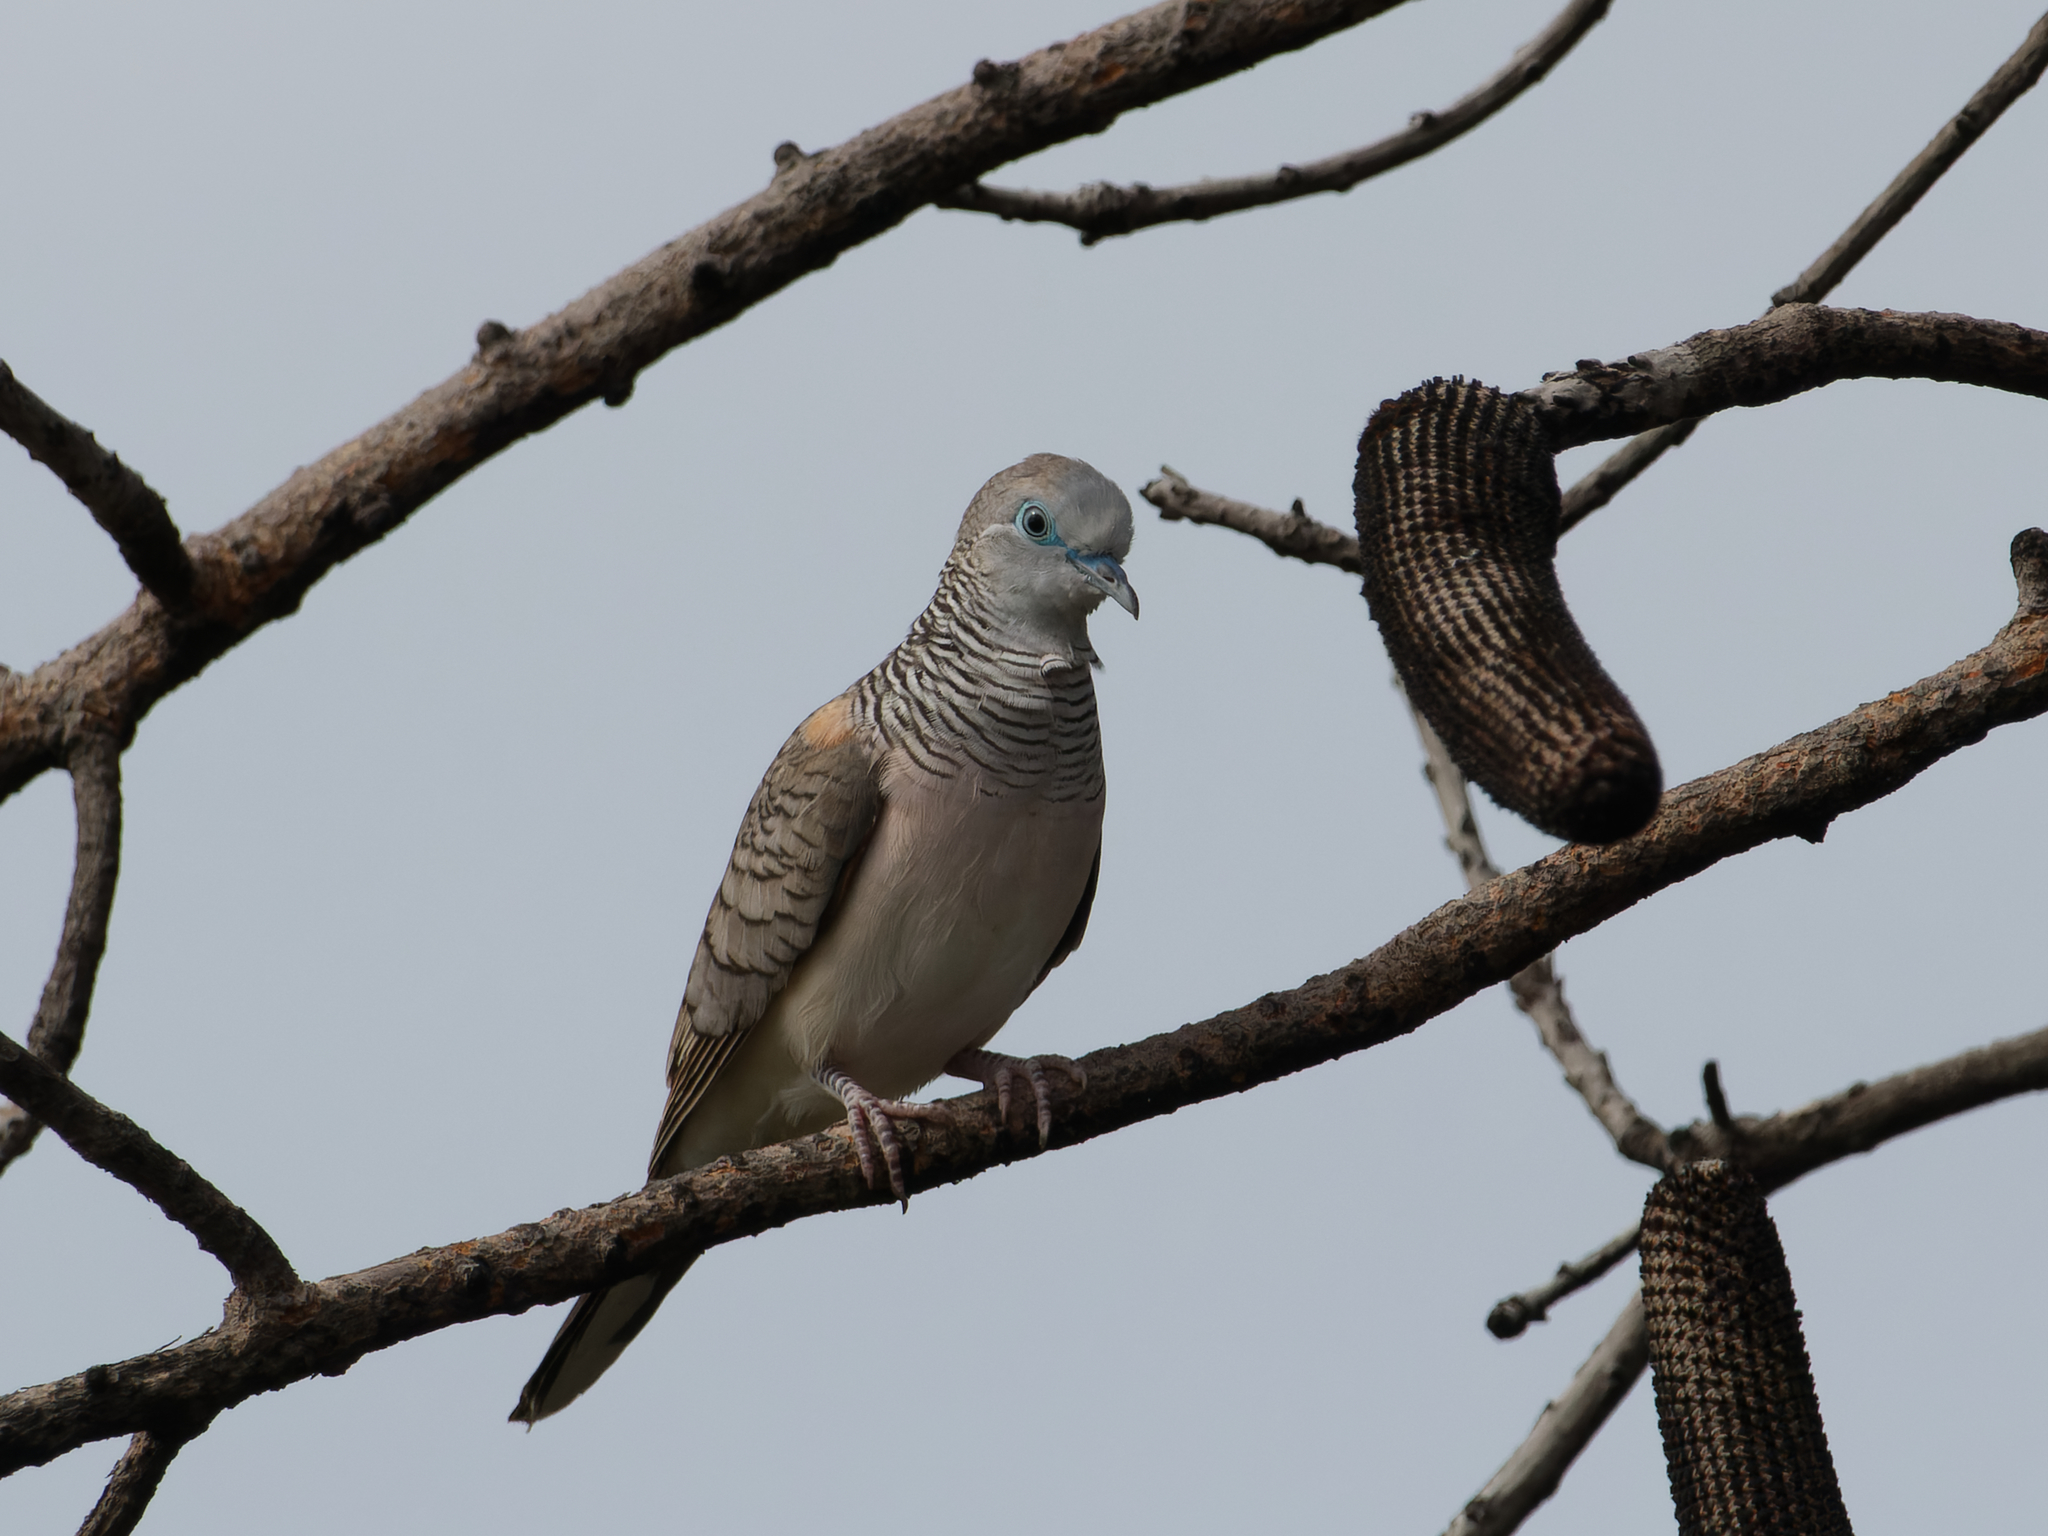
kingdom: Animalia
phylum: Chordata
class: Aves
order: Columbiformes
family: Columbidae
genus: Geopelia
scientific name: Geopelia placida
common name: Peaceful dove
